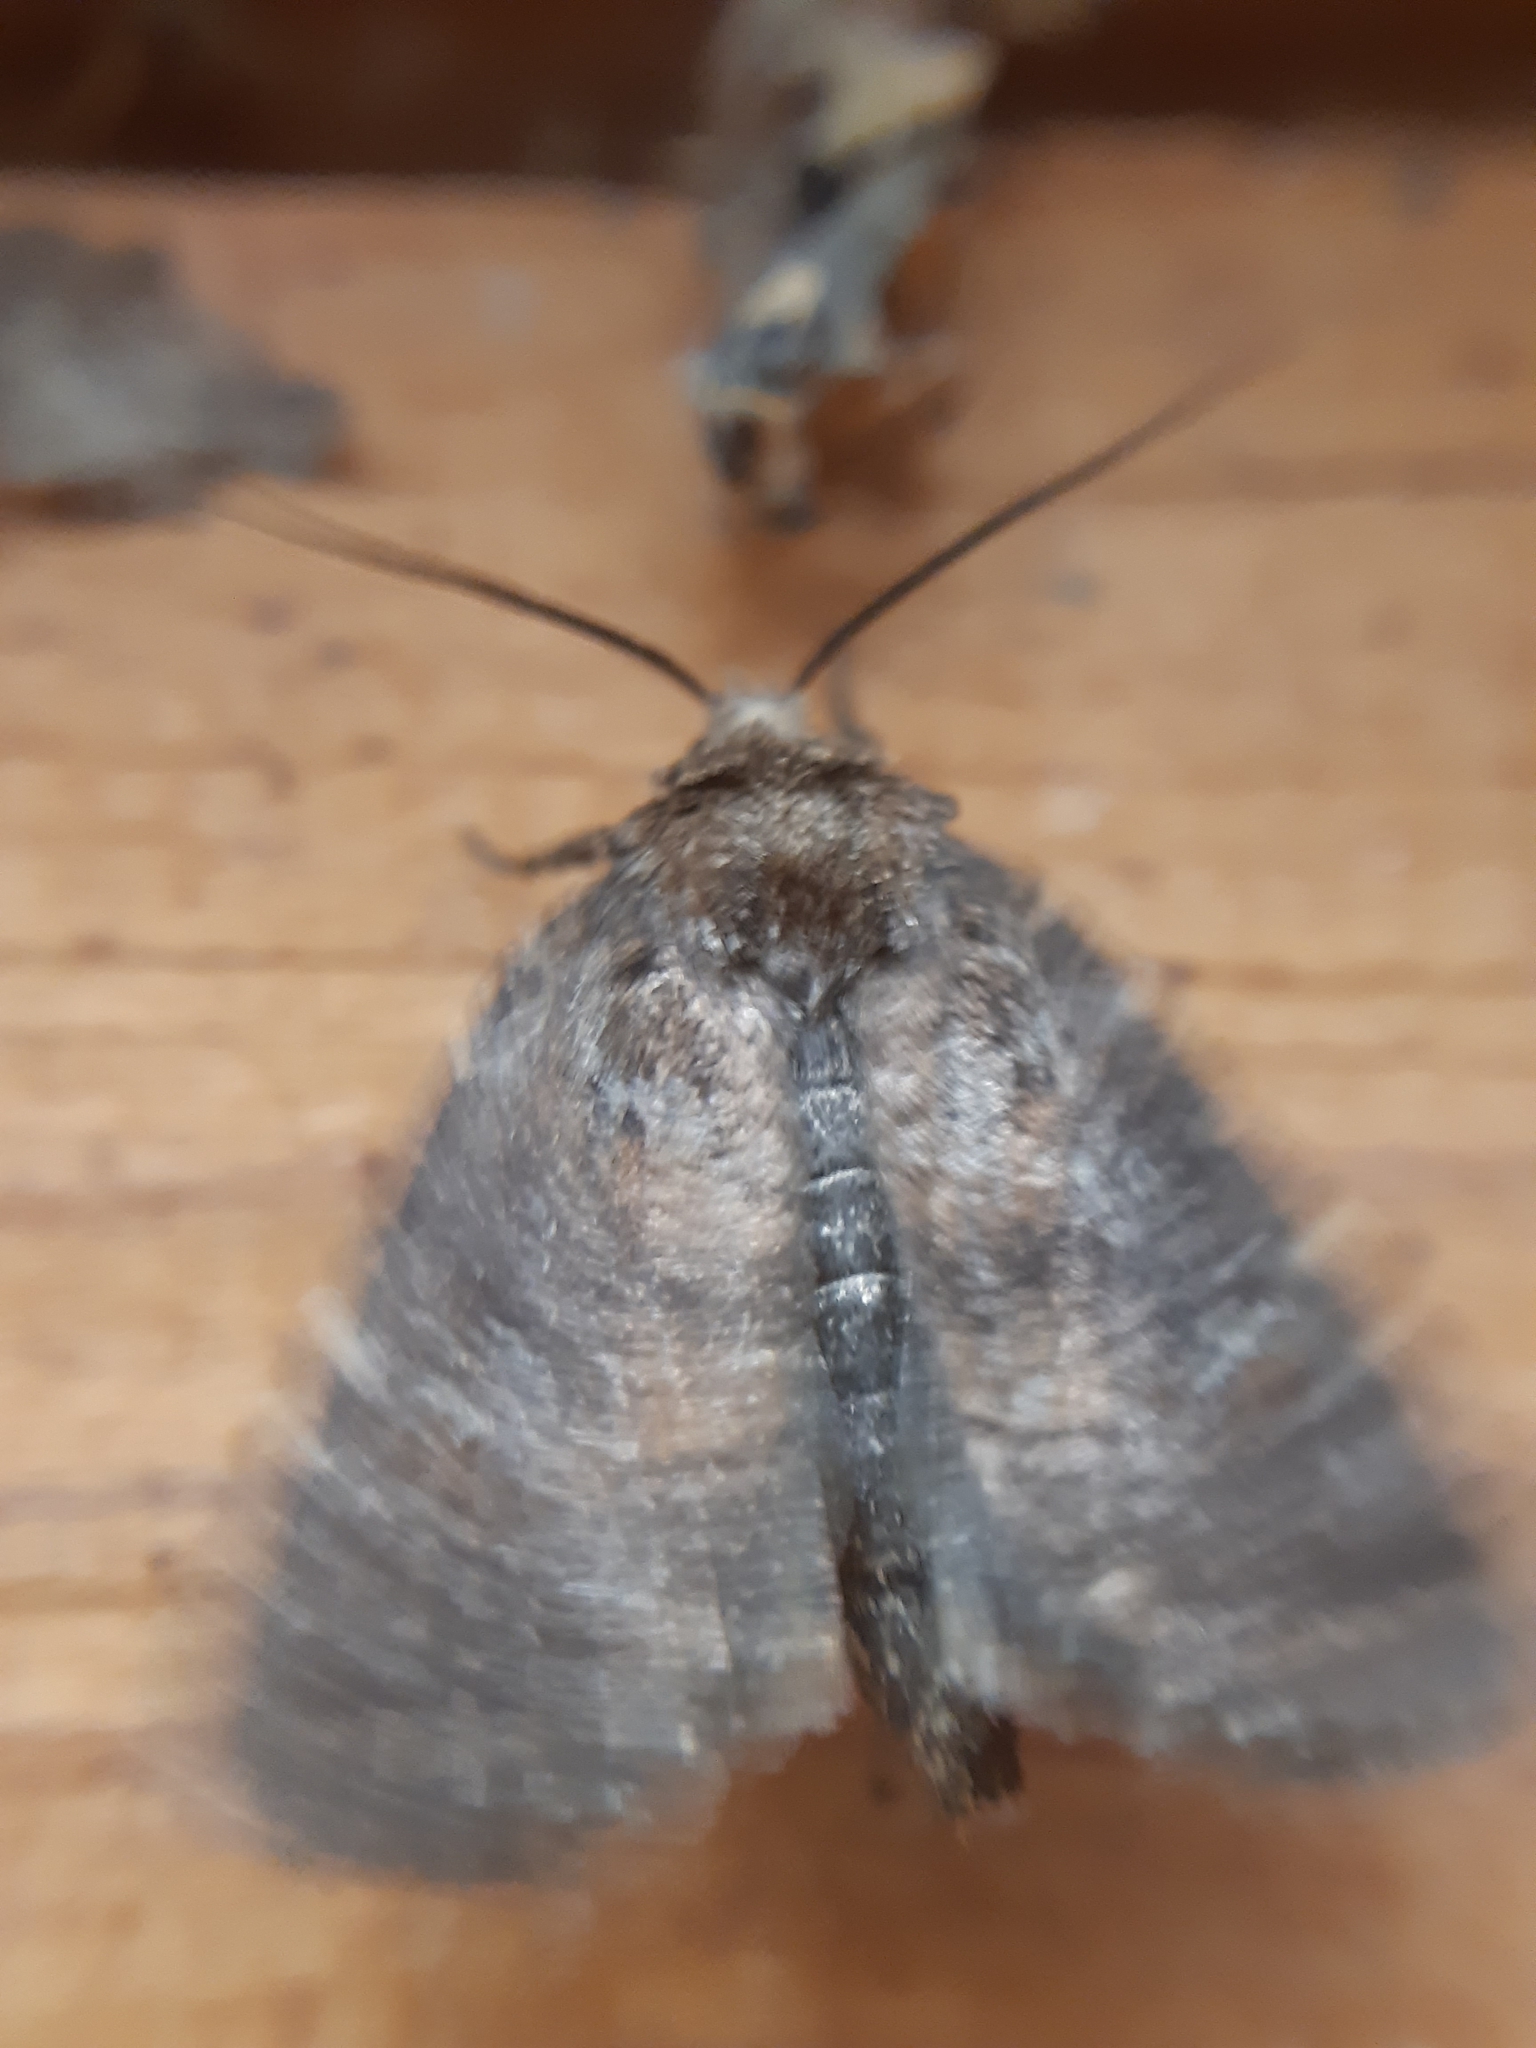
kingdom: Animalia
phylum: Arthropoda
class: Insecta
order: Lepidoptera
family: Noctuidae
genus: Charanyca
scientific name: Charanyca ferruginea
